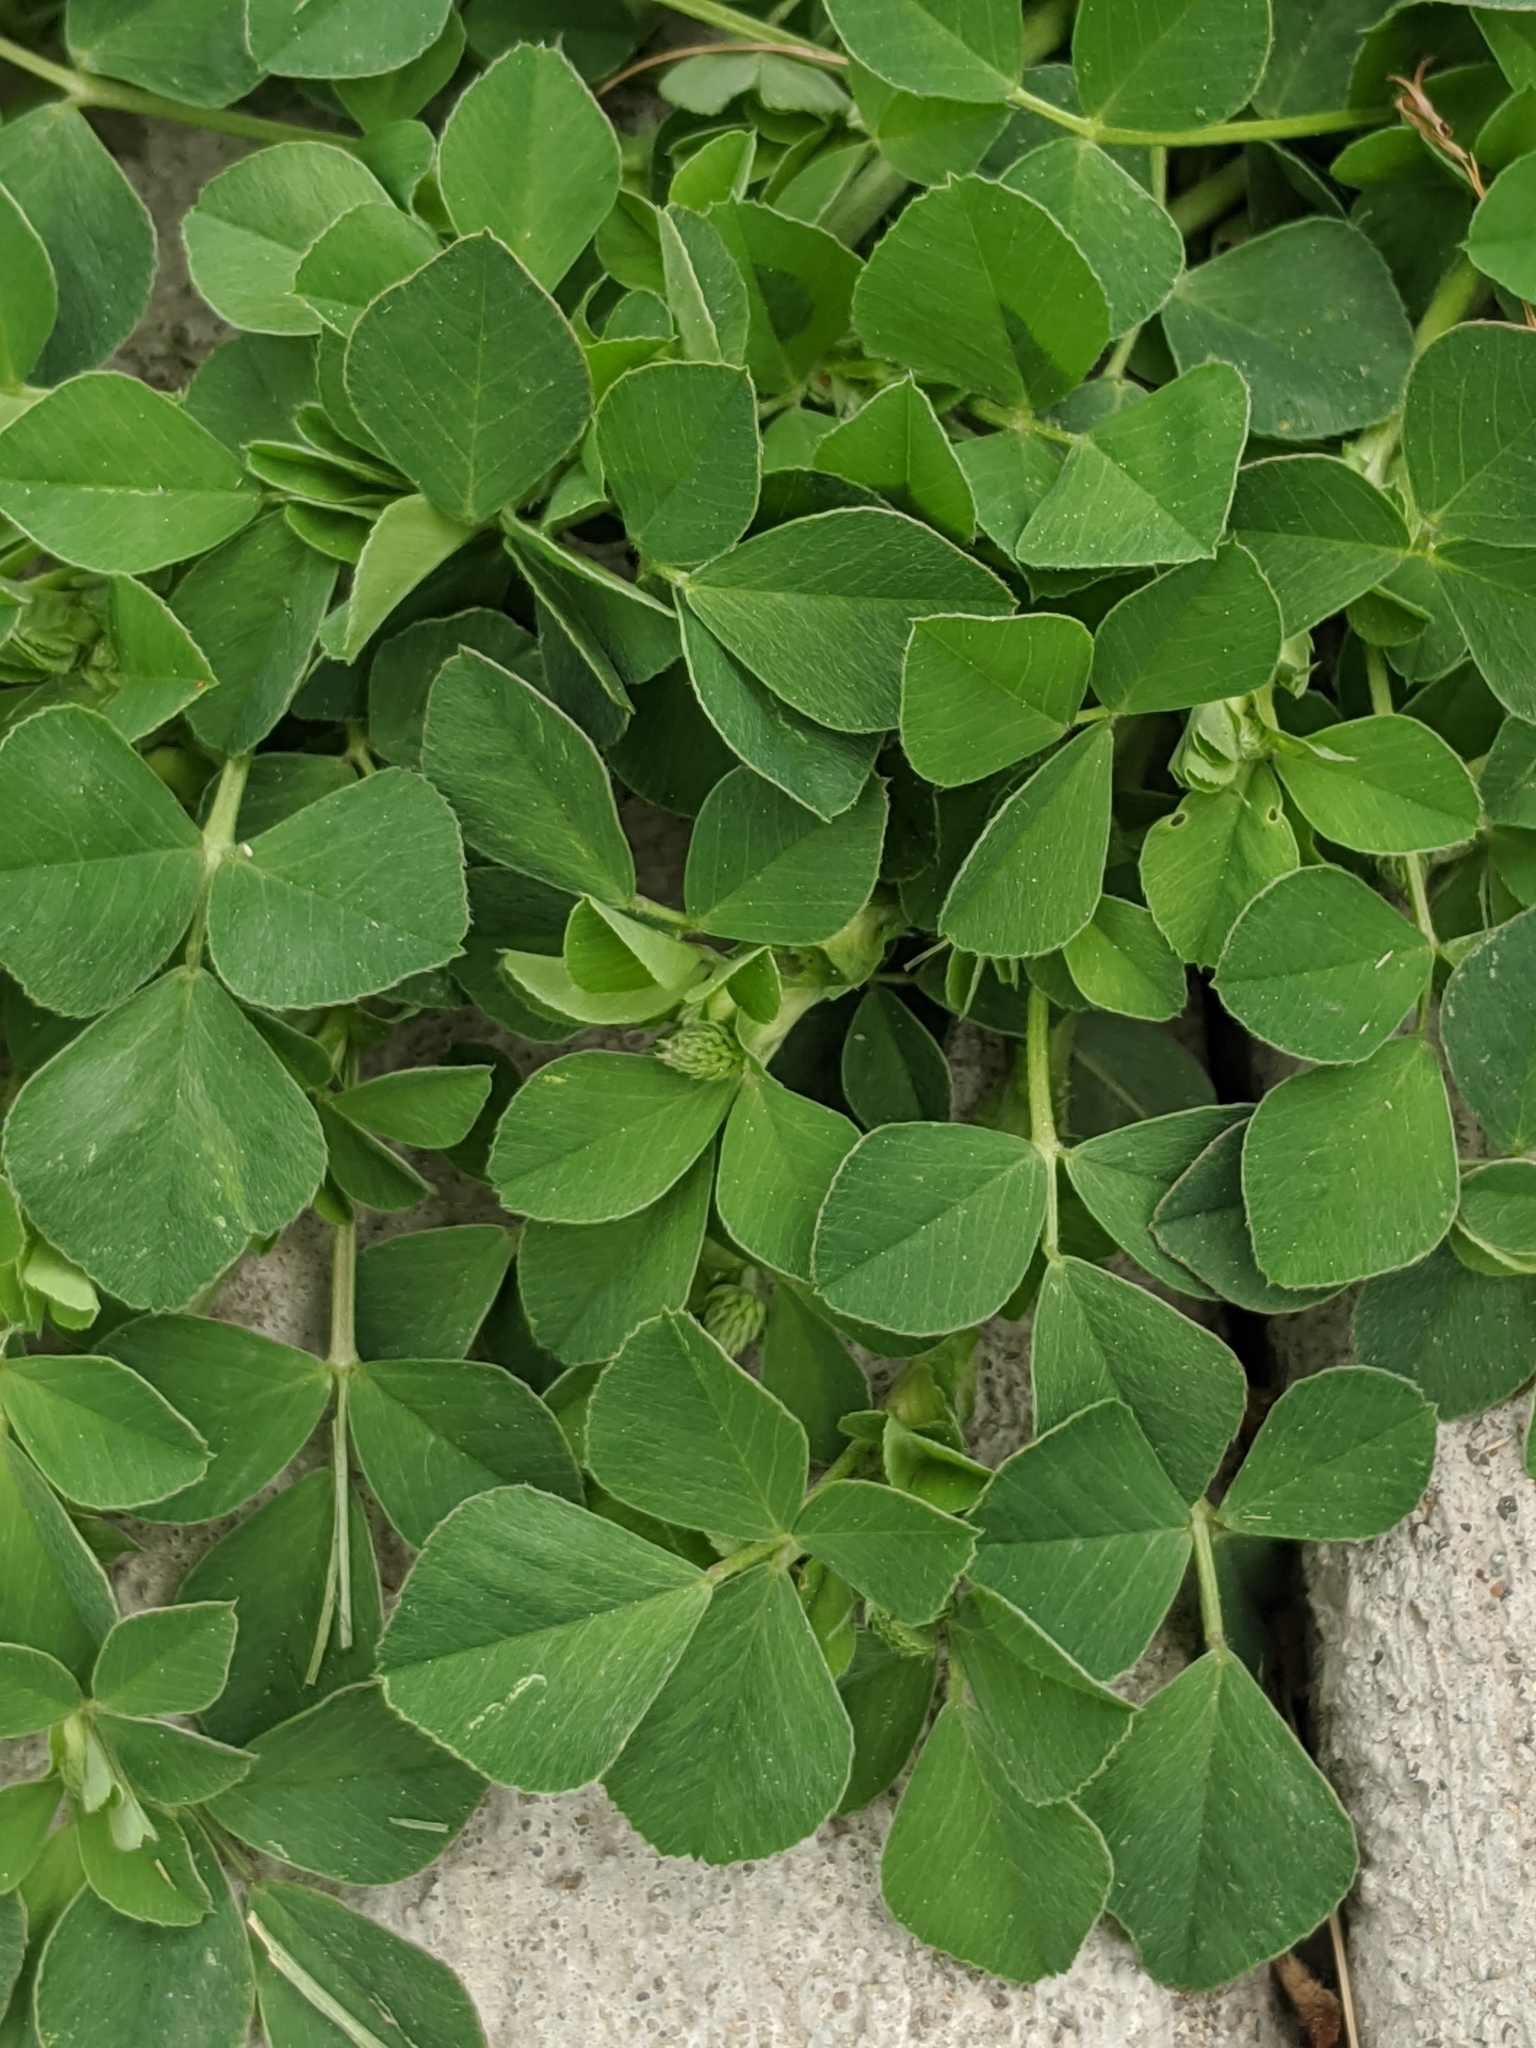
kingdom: Plantae
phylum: Tracheophyta
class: Magnoliopsida
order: Fabales
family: Fabaceae
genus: Medicago
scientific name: Medicago lupulina
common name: Black medick
